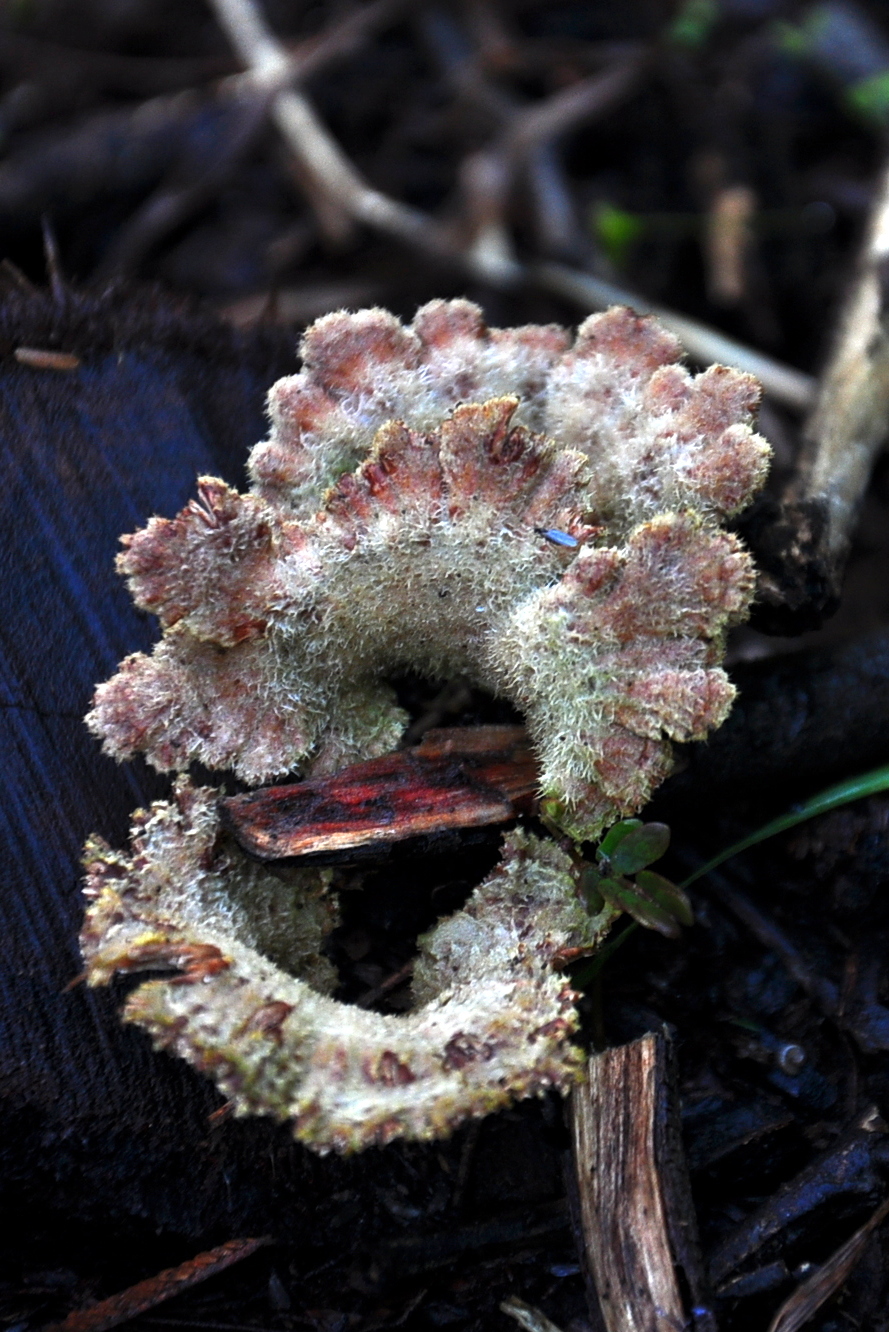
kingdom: Fungi
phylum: Basidiomycota
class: Agaricomycetes
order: Agaricales
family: Schizophyllaceae
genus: Schizophyllum
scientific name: Schizophyllum commune
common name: Common porecrust
